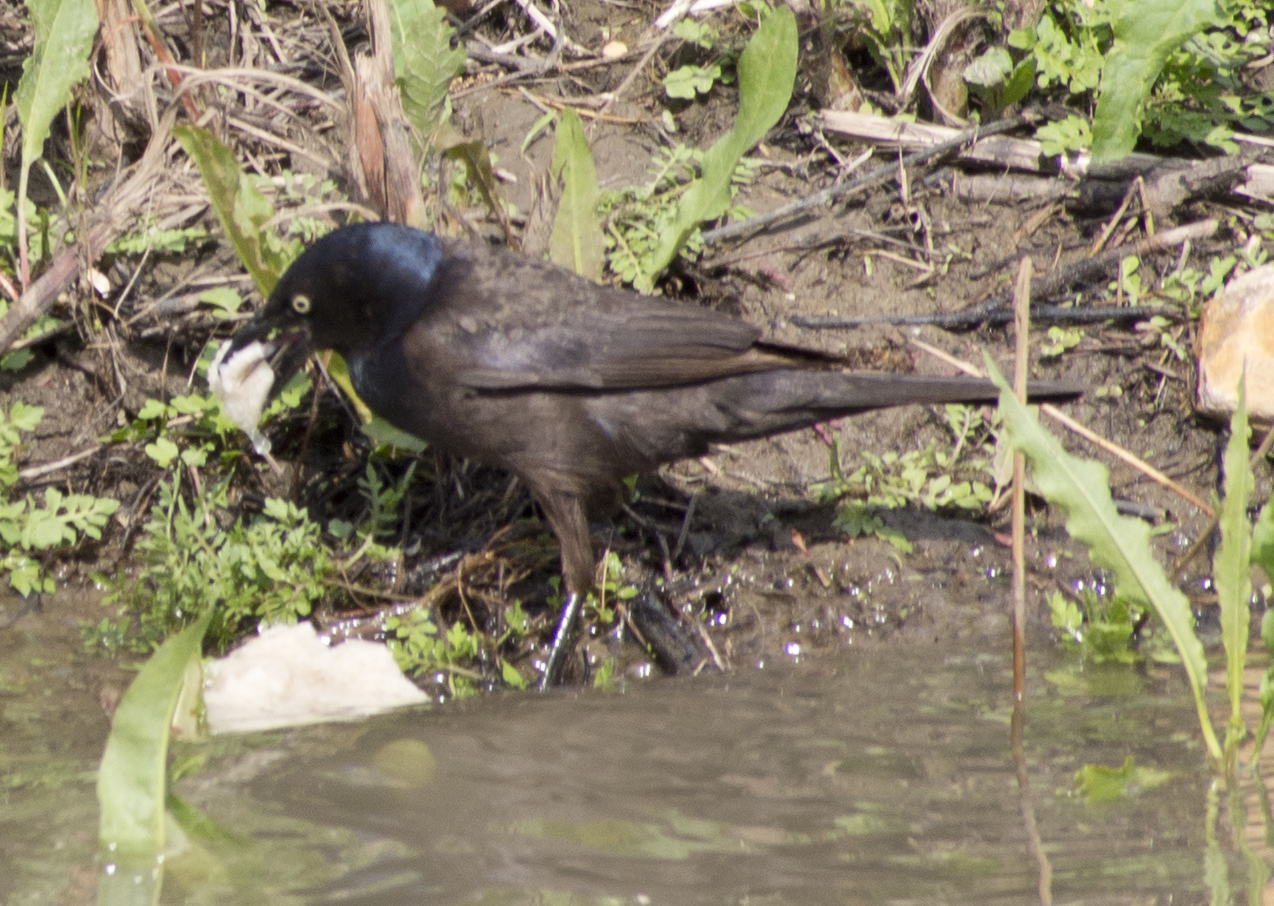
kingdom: Animalia
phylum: Chordata
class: Aves
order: Passeriformes
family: Icteridae
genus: Quiscalus
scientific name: Quiscalus quiscula
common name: Common grackle
